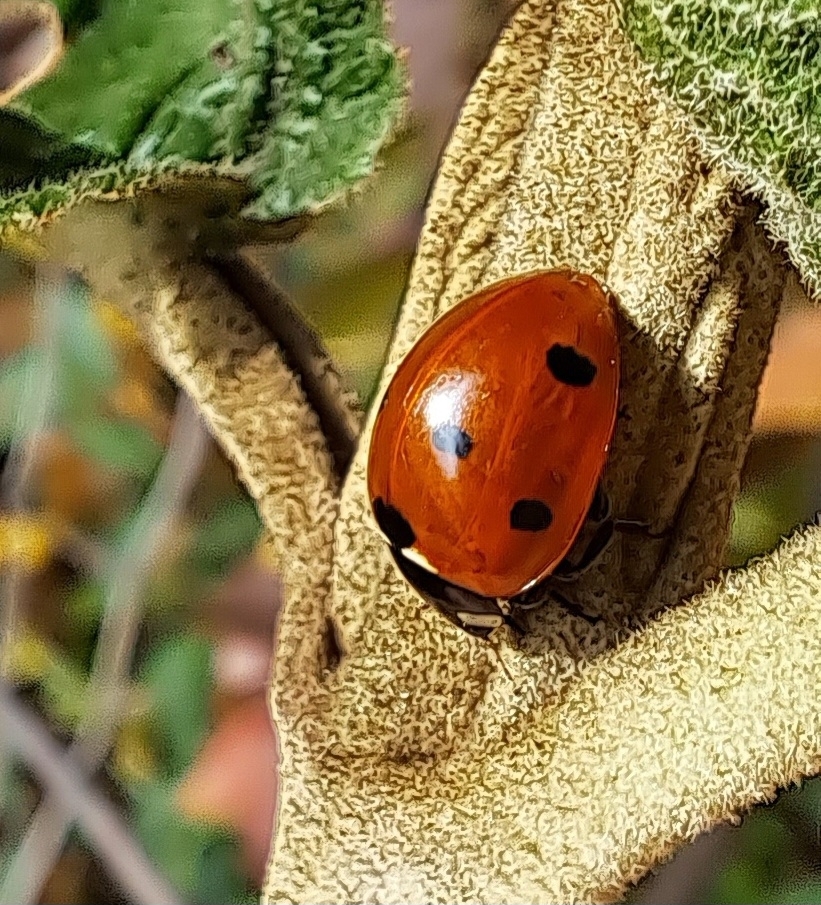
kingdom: Animalia
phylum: Arthropoda
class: Insecta
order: Coleoptera
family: Coccinellidae
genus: Coccinella
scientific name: Coccinella septempunctata
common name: Sevenspotted lady beetle
